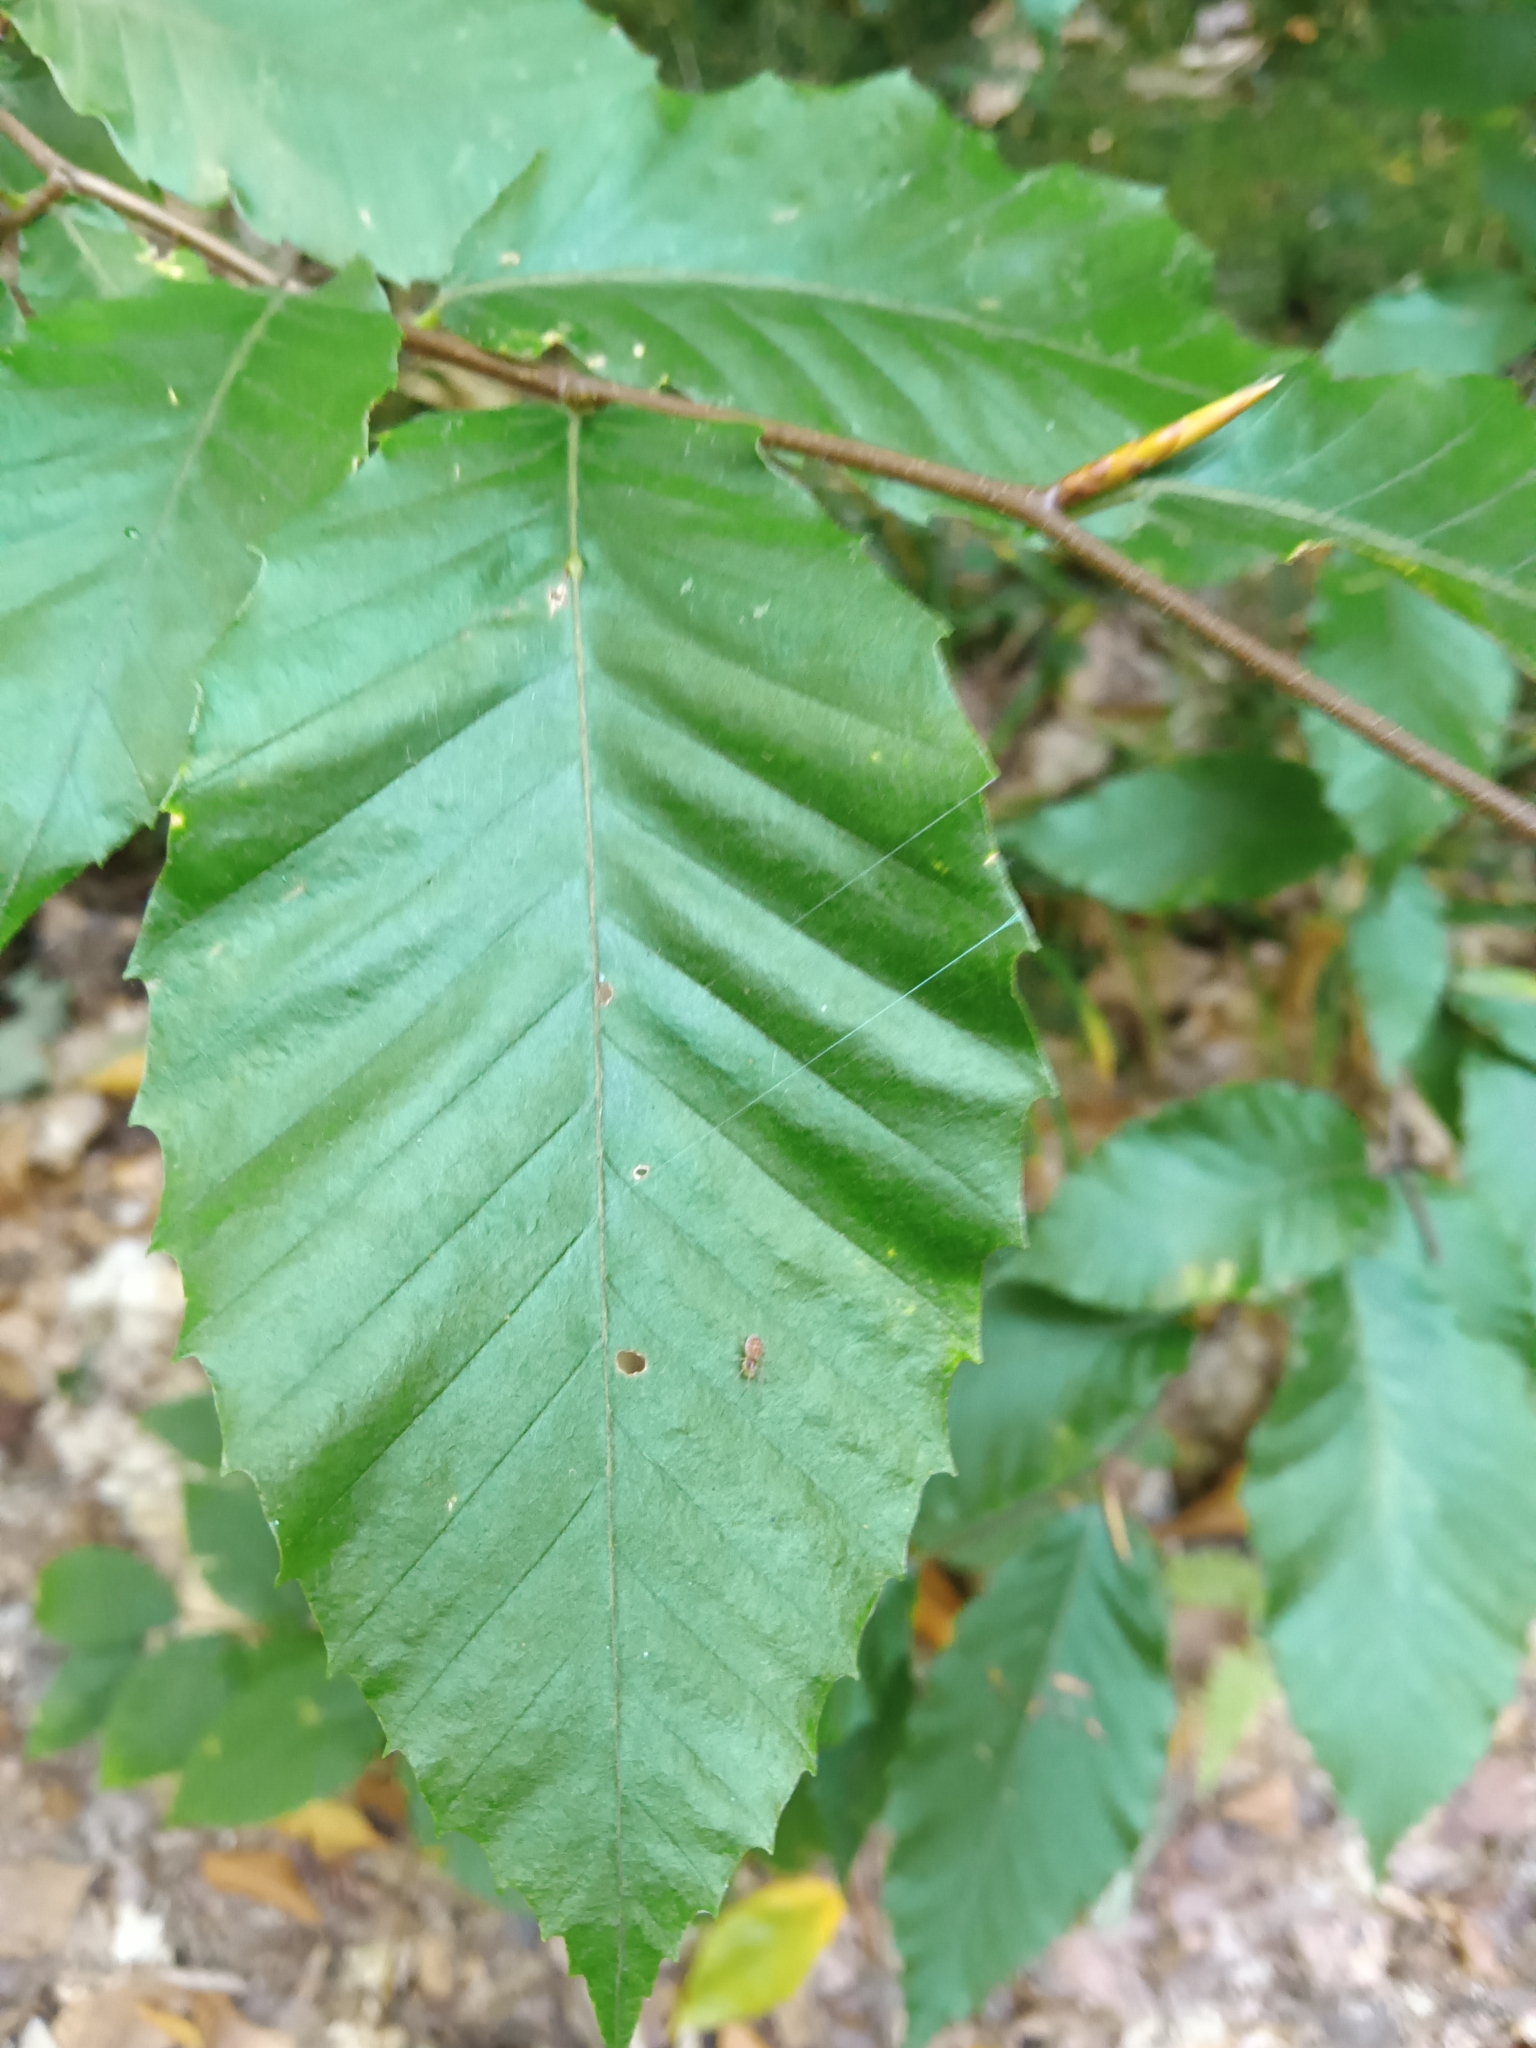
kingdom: Plantae
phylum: Tracheophyta
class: Magnoliopsida
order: Fagales
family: Fagaceae
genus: Fagus
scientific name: Fagus grandifolia
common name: American beech
